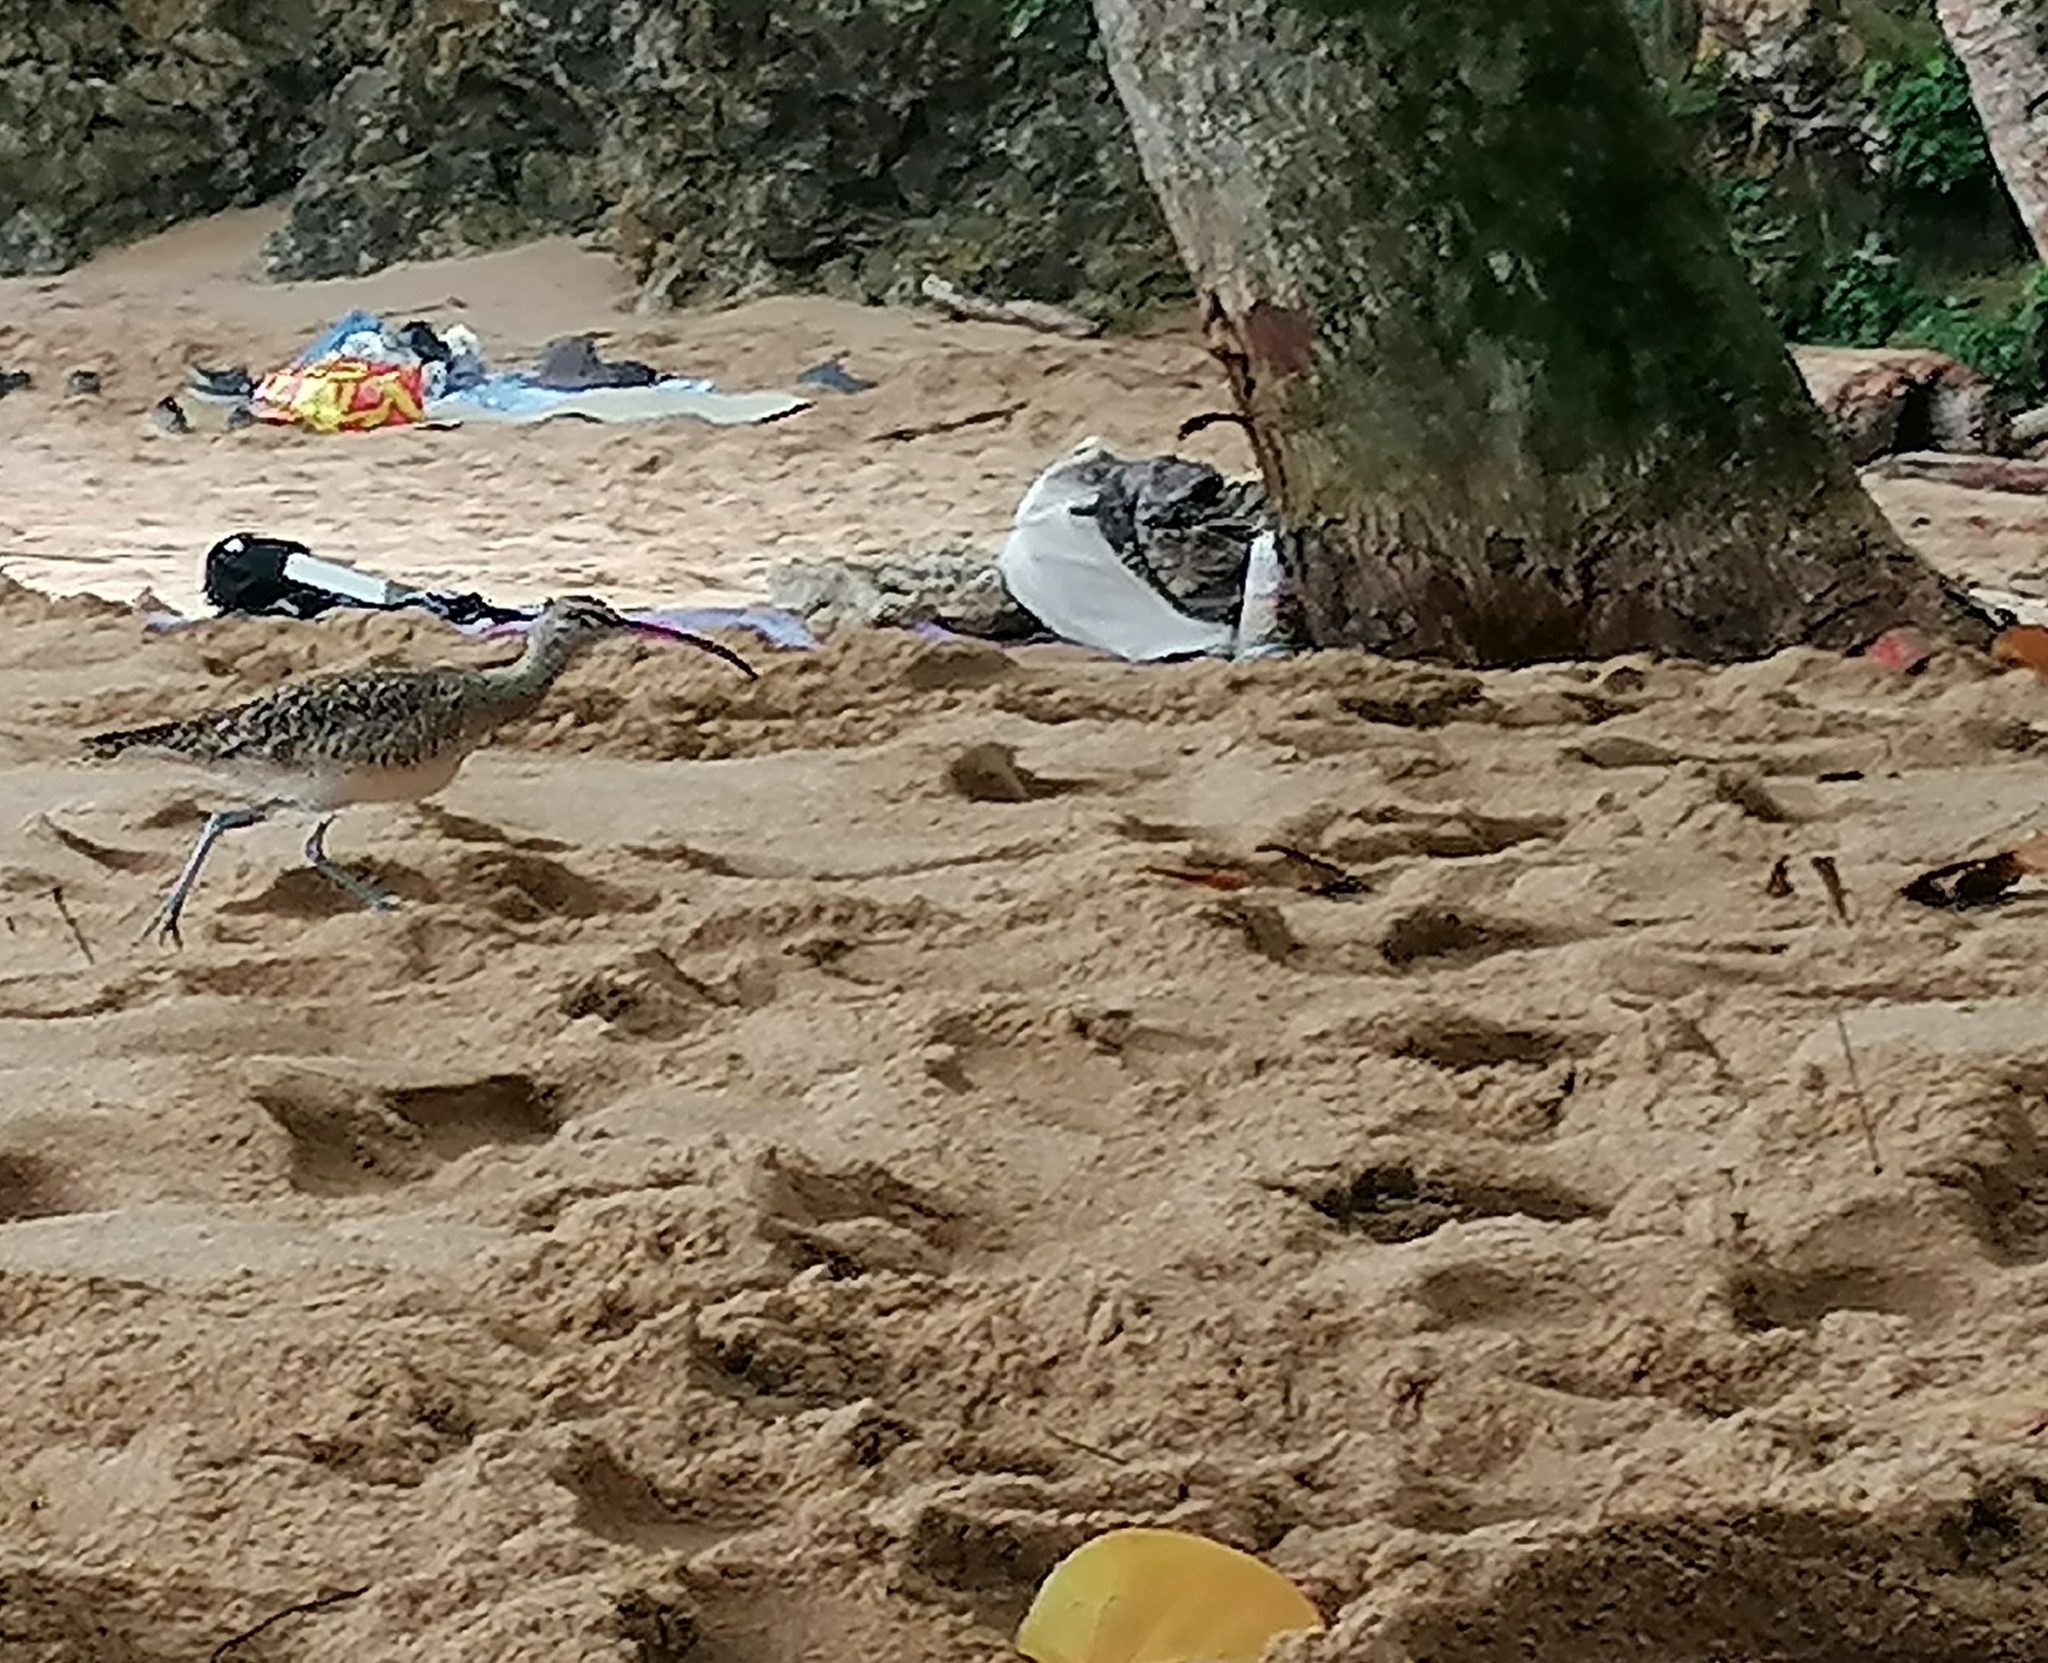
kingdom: Animalia
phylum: Chordata
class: Aves
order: Charadriiformes
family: Scolopacidae
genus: Numenius
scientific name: Numenius phaeopus
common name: Whimbrel
